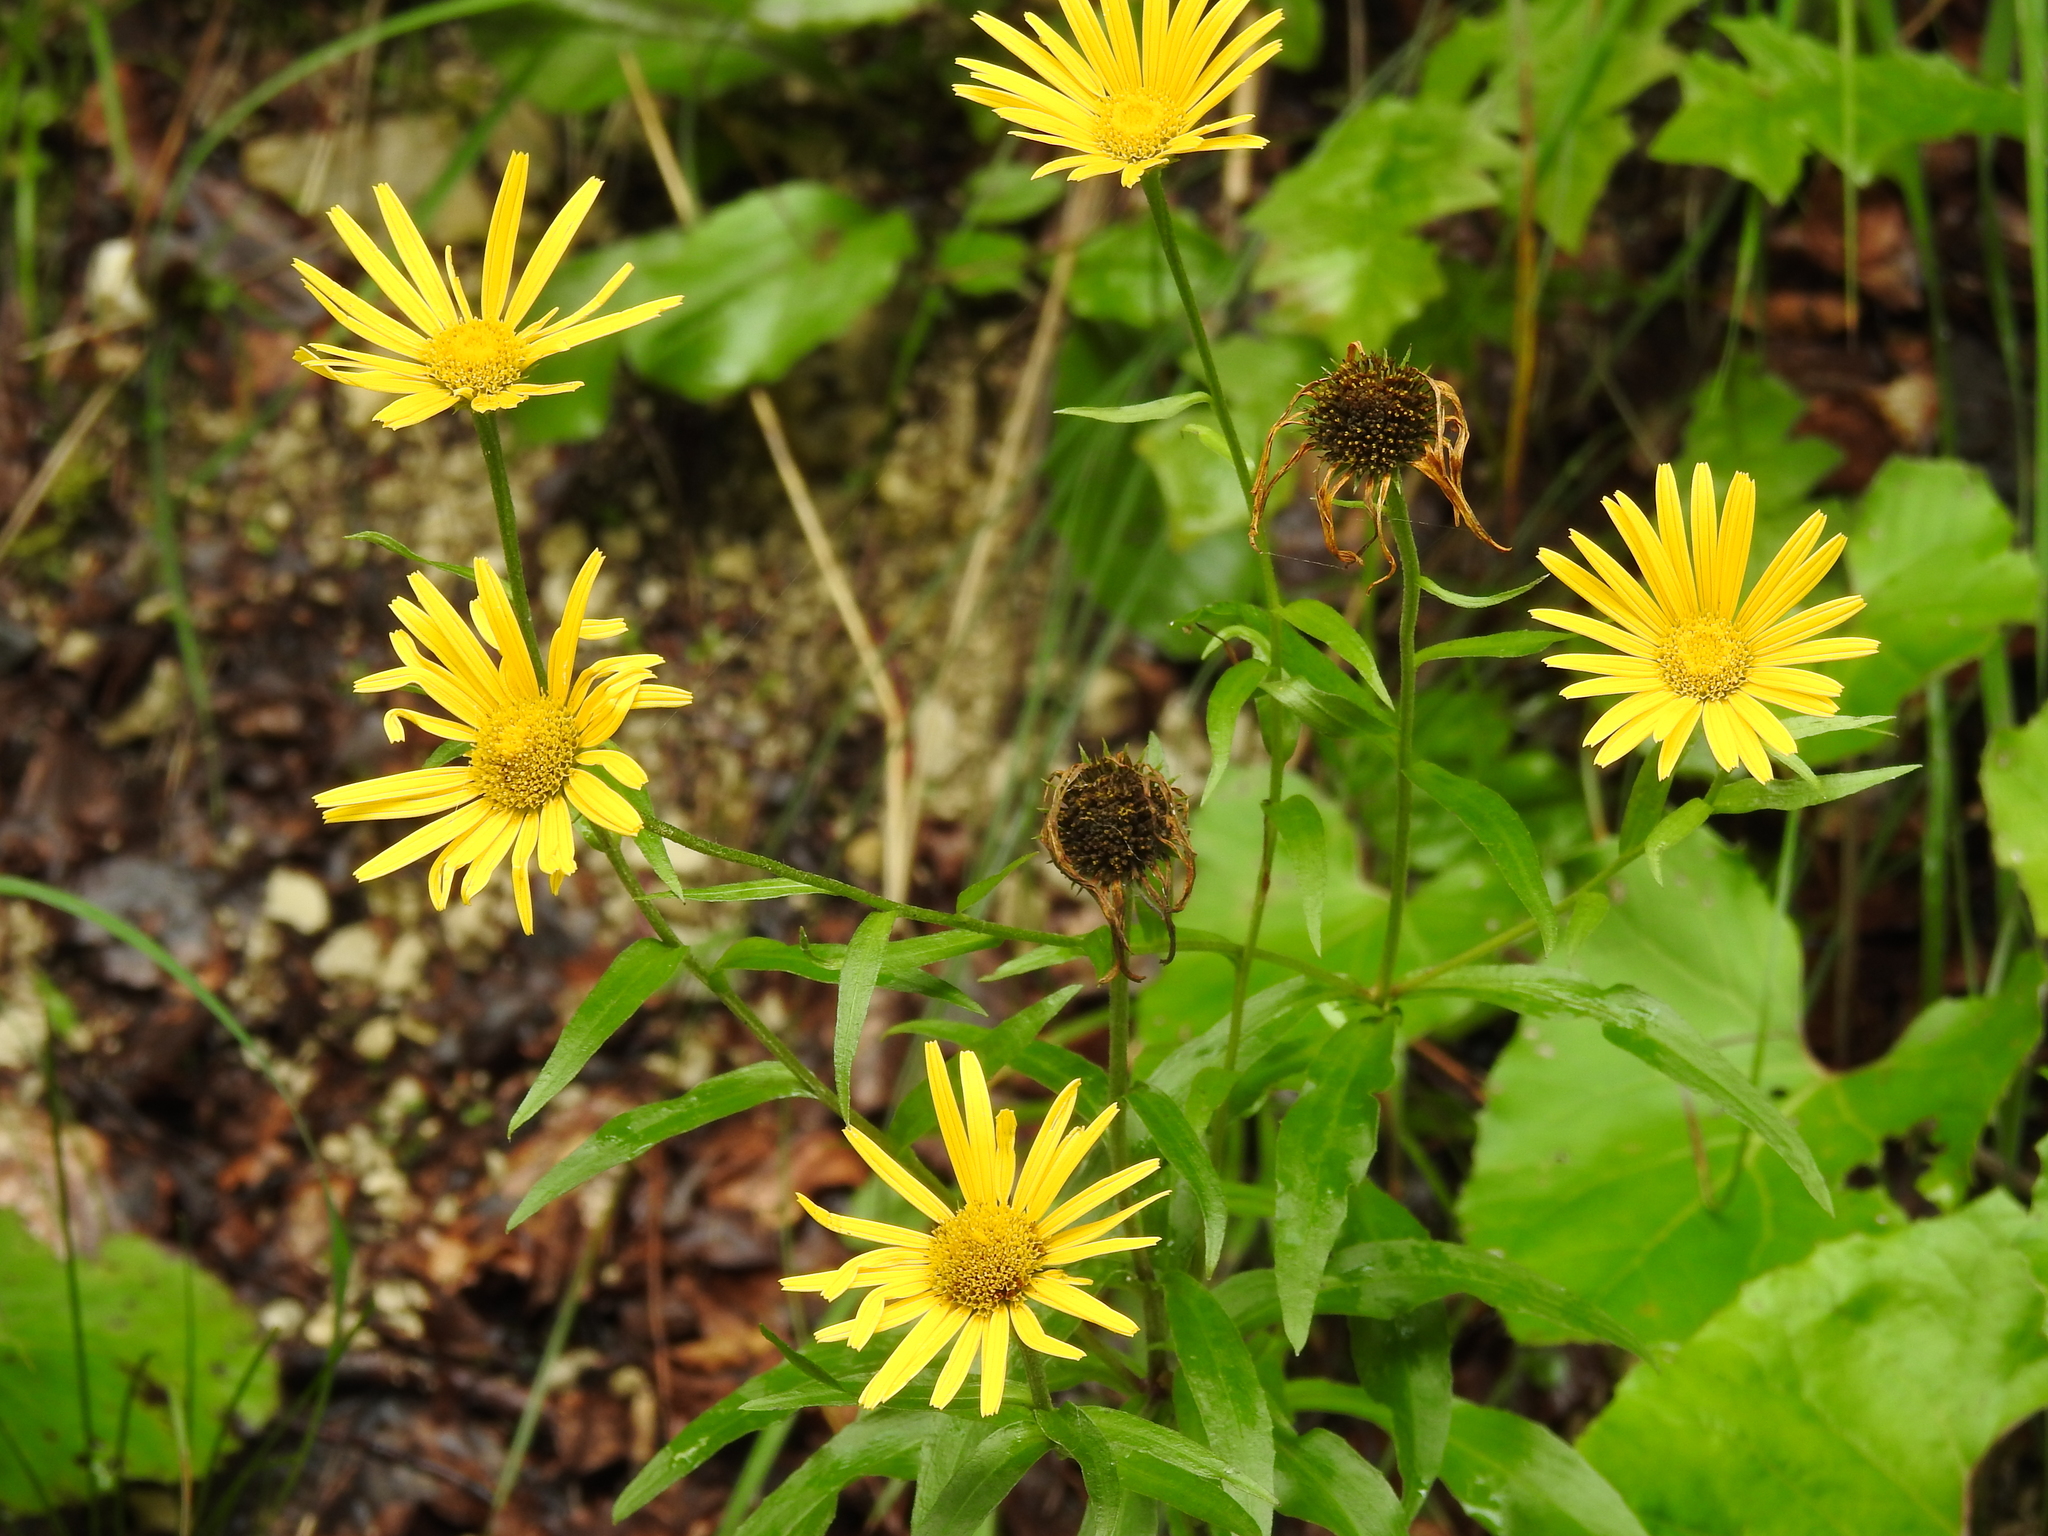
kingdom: Plantae
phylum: Tracheophyta
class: Magnoliopsida
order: Asterales
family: Asteraceae
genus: Buphthalmum
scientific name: Buphthalmum salicifolium
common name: Willow-leaved yellow-oxeye
